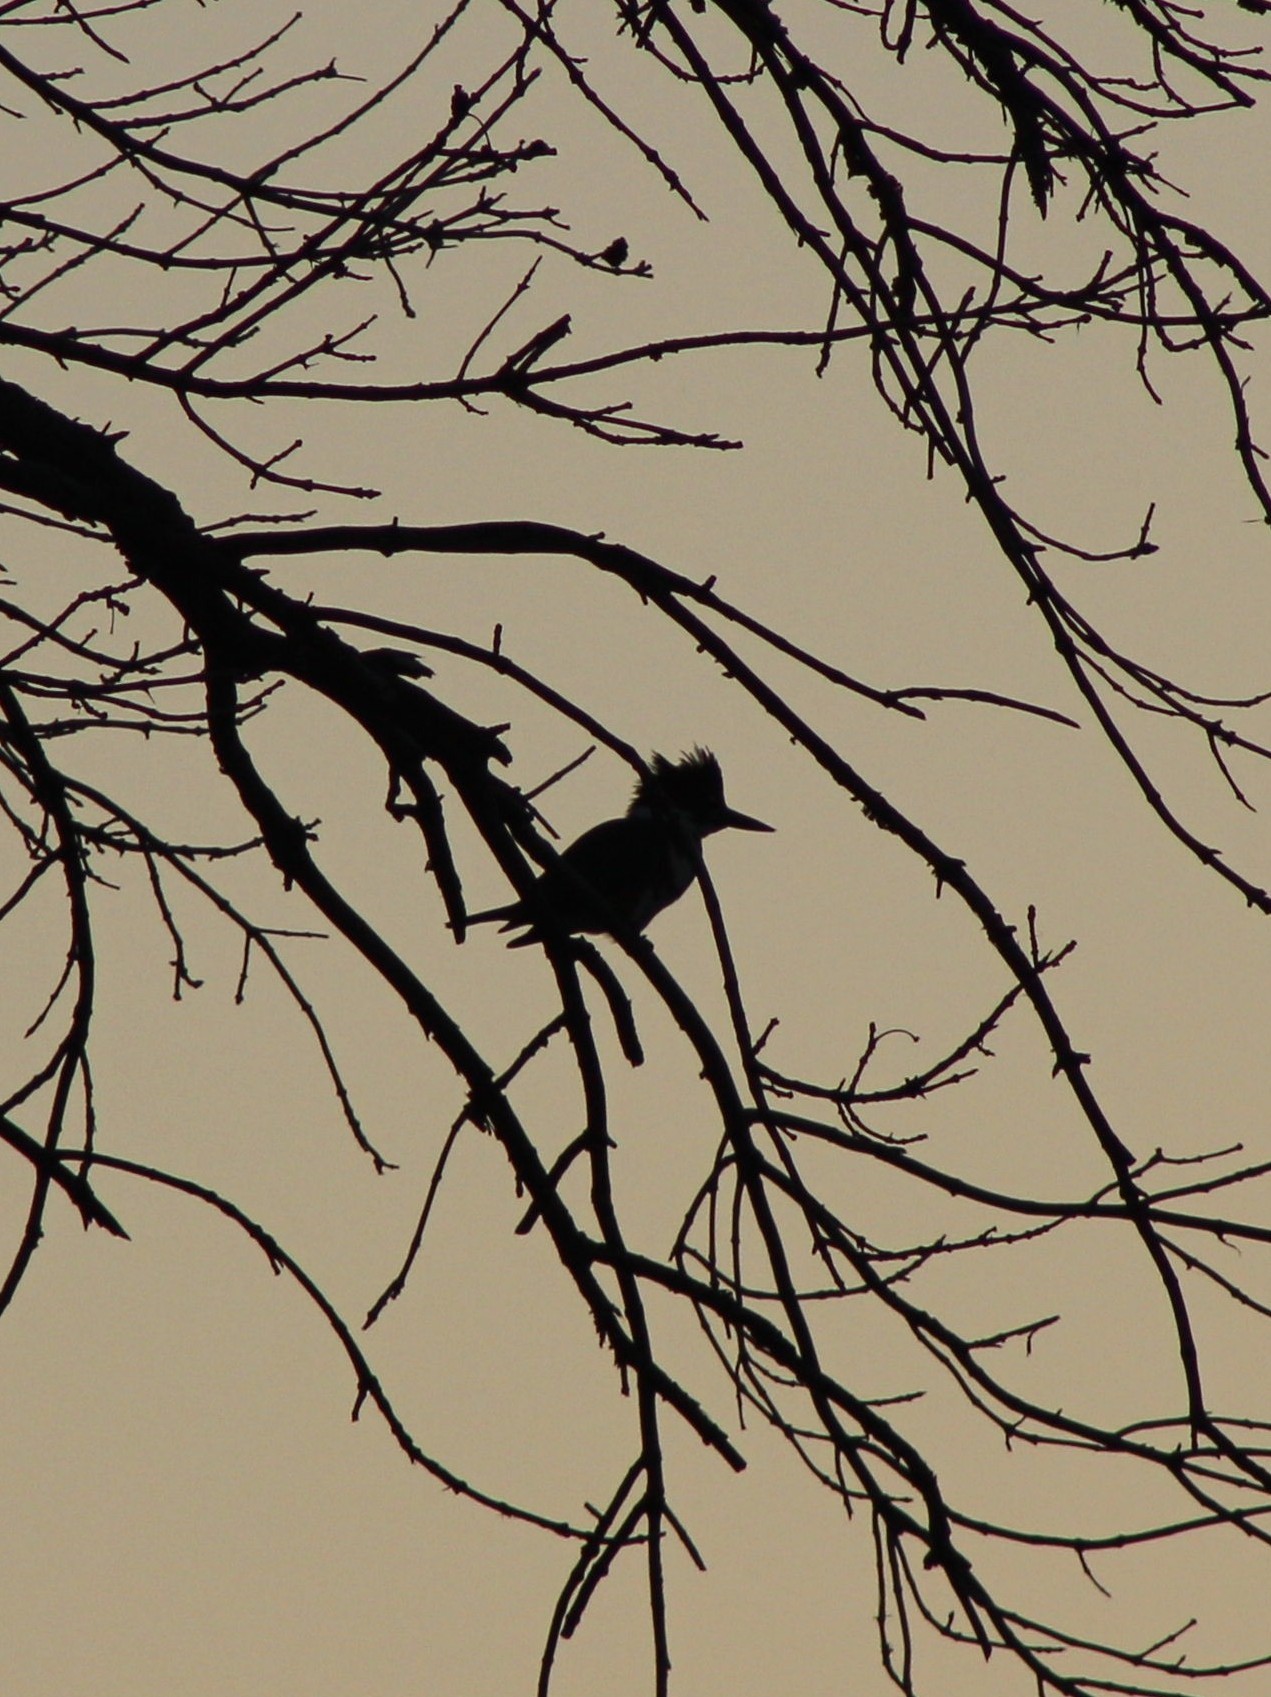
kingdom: Animalia
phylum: Chordata
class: Aves
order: Coraciiformes
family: Alcedinidae
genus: Megaceryle
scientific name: Megaceryle alcyon
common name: Belted kingfisher
